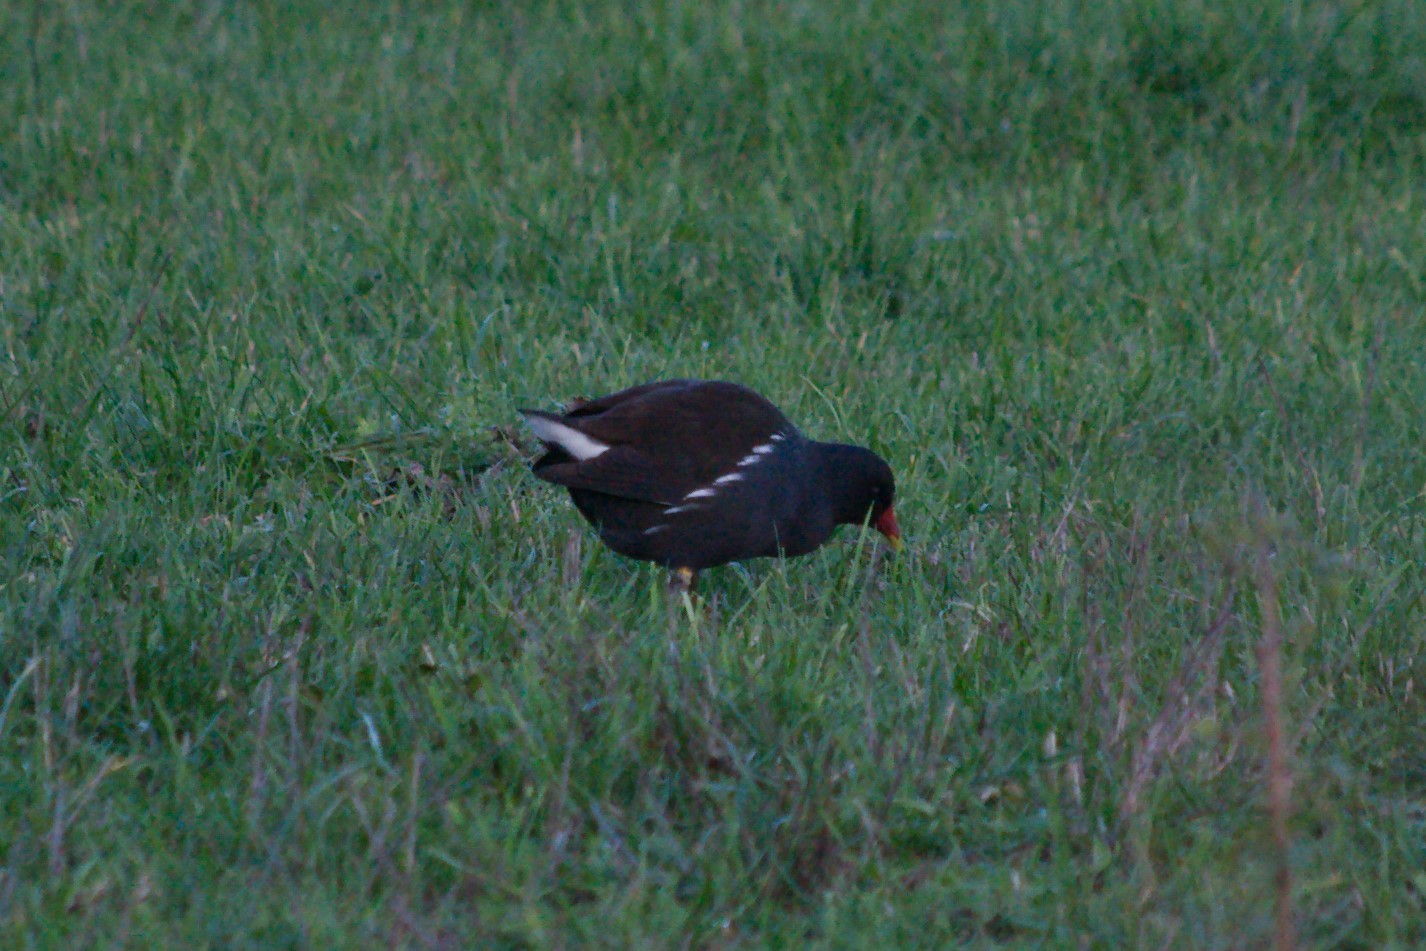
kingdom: Animalia
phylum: Chordata
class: Aves
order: Gruiformes
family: Rallidae
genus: Gallinula
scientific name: Gallinula chloropus
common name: Common moorhen
